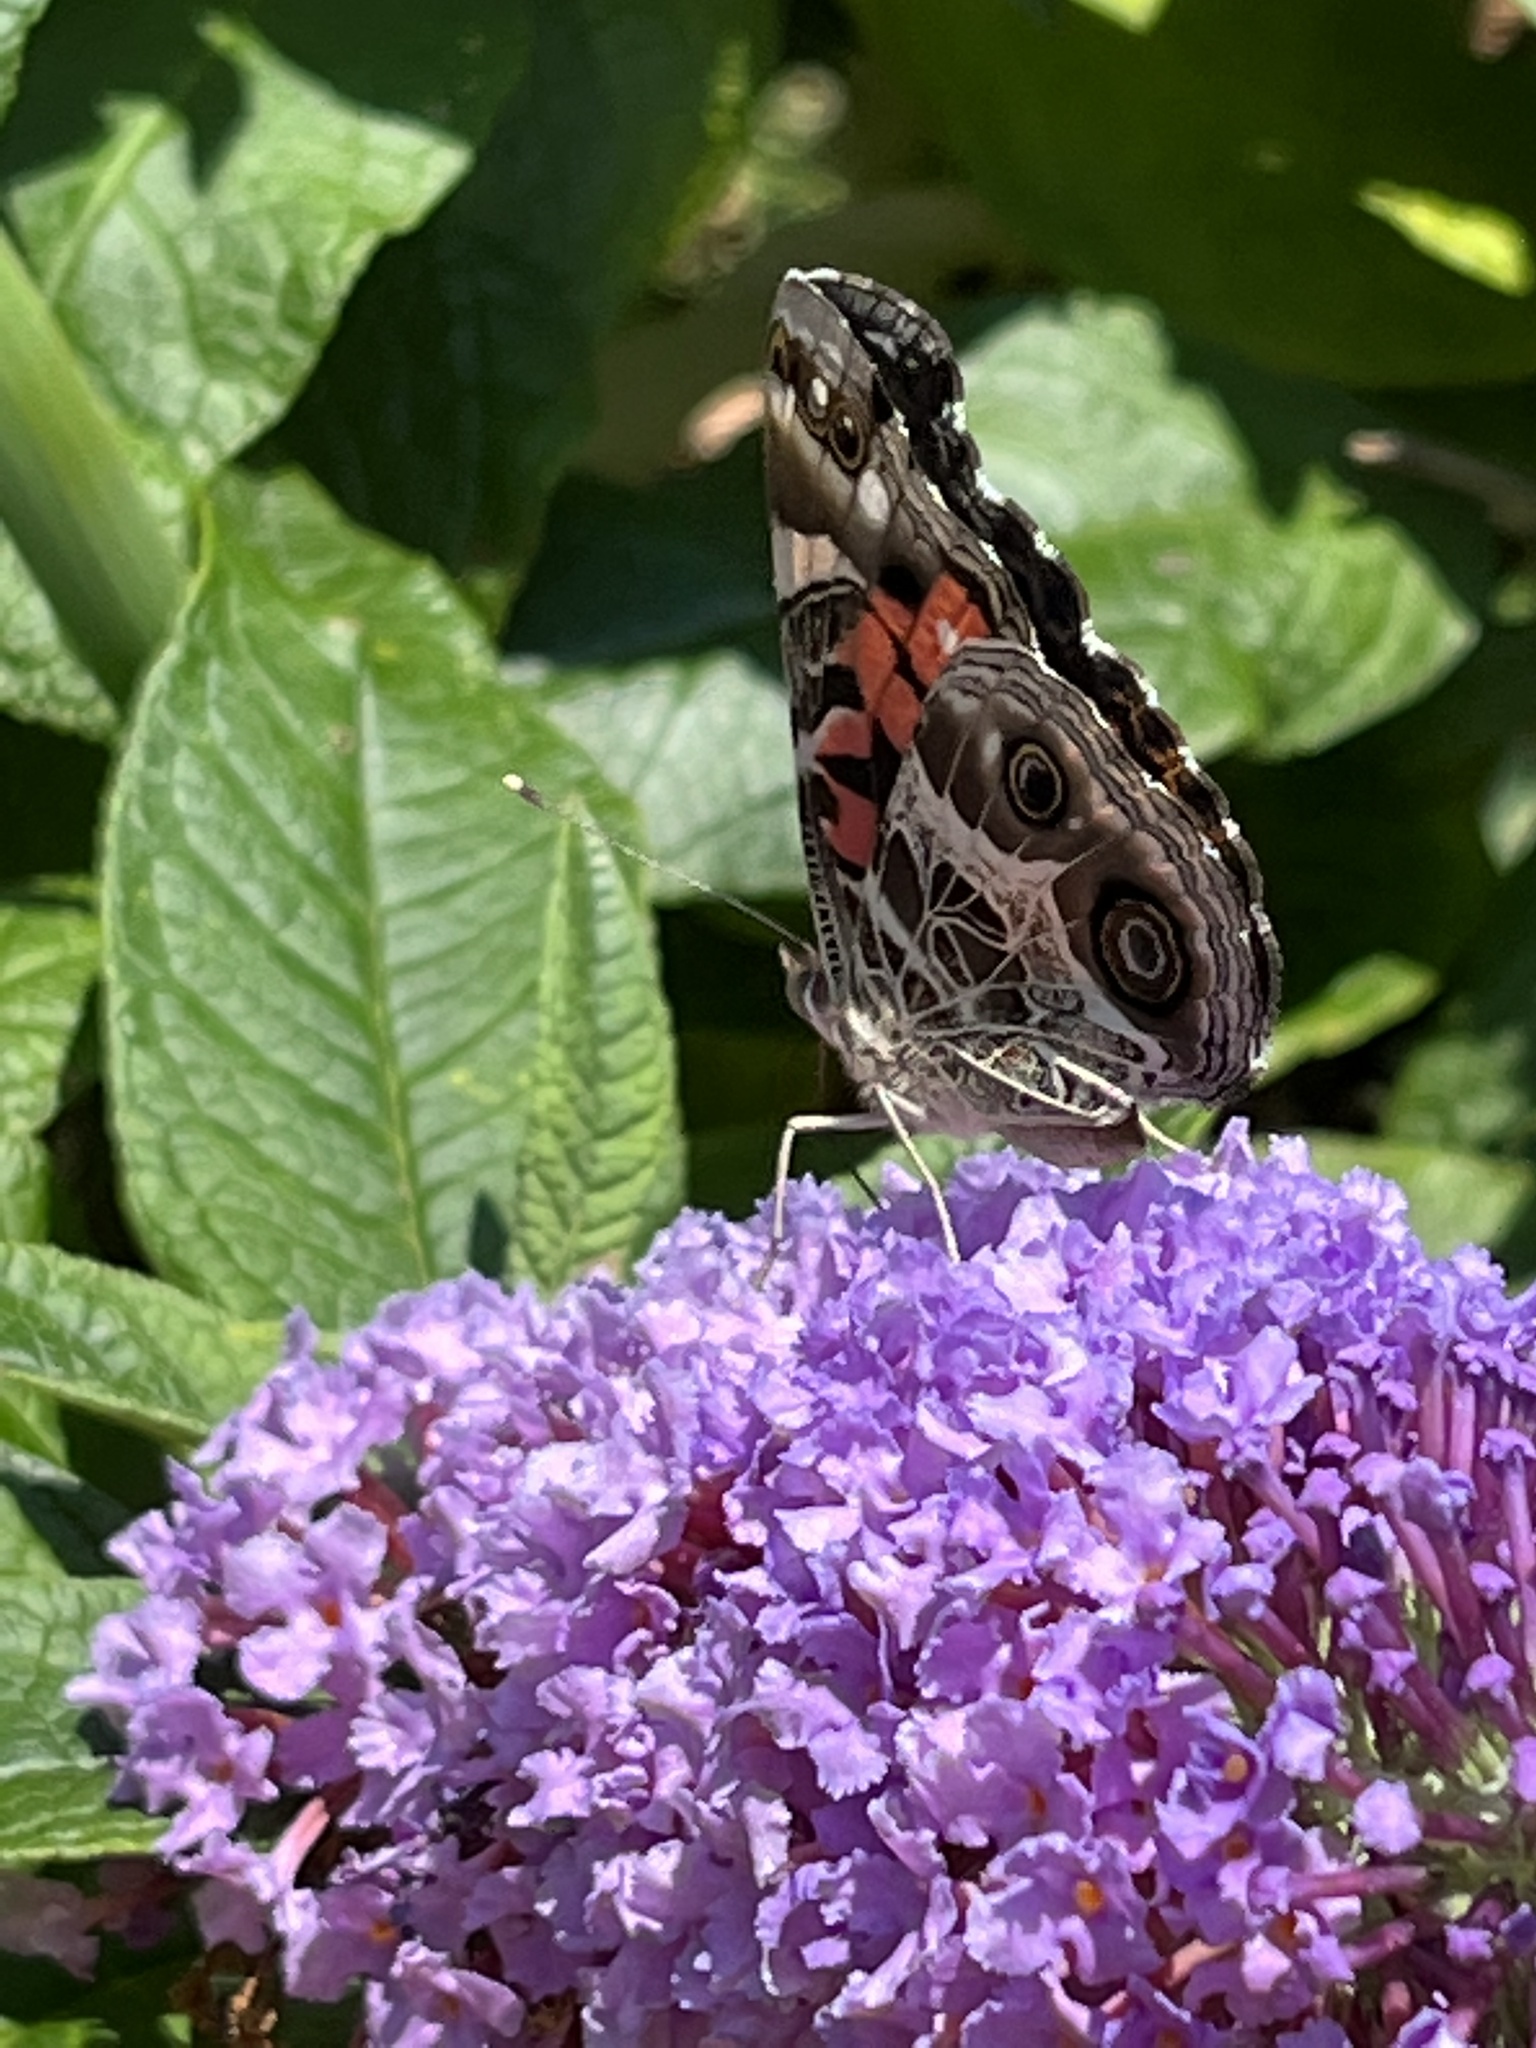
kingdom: Animalia
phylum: Arthropoda
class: Insecta
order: Lepidoptera
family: Nymphalidae
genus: Vanessa
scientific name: Vanessa virginiensis
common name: American lady
